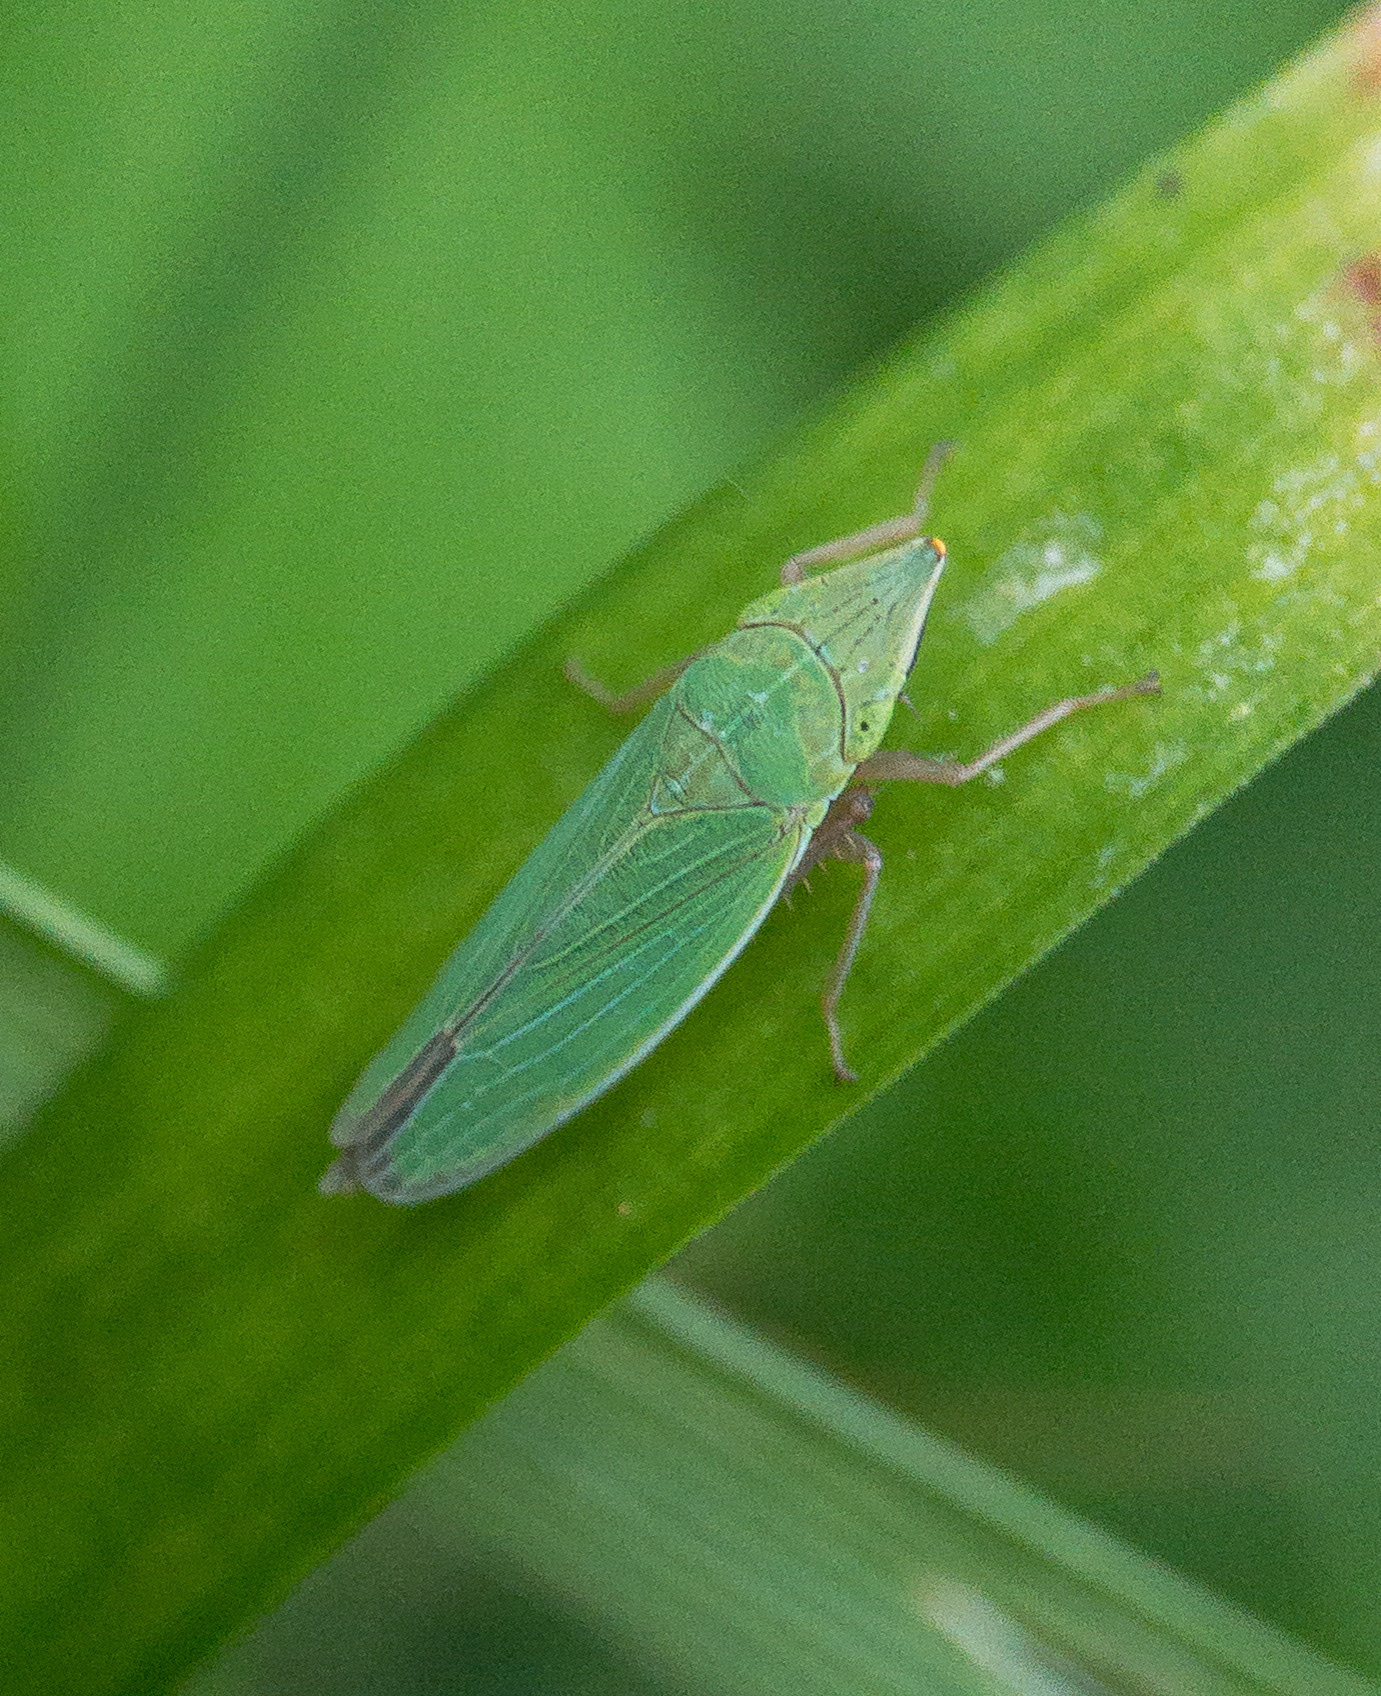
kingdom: Animalia
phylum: Arthropoda
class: Insecta
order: Hemiptera
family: Cicadellidae
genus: Draeculacephala
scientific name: Draeculacephala antica
